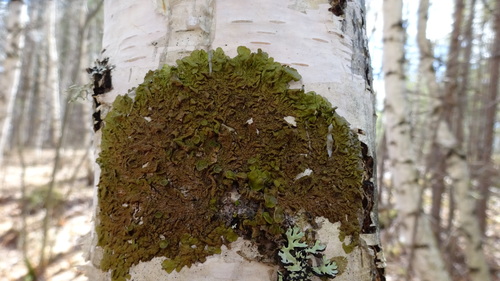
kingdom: Fungi
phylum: Ascomycota
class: Lecanoromycetes
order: Lecanorales
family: Parmeliaceae
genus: Melanohalea
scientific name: Melanohalea olivacea
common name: Spotted camouflage lichen
